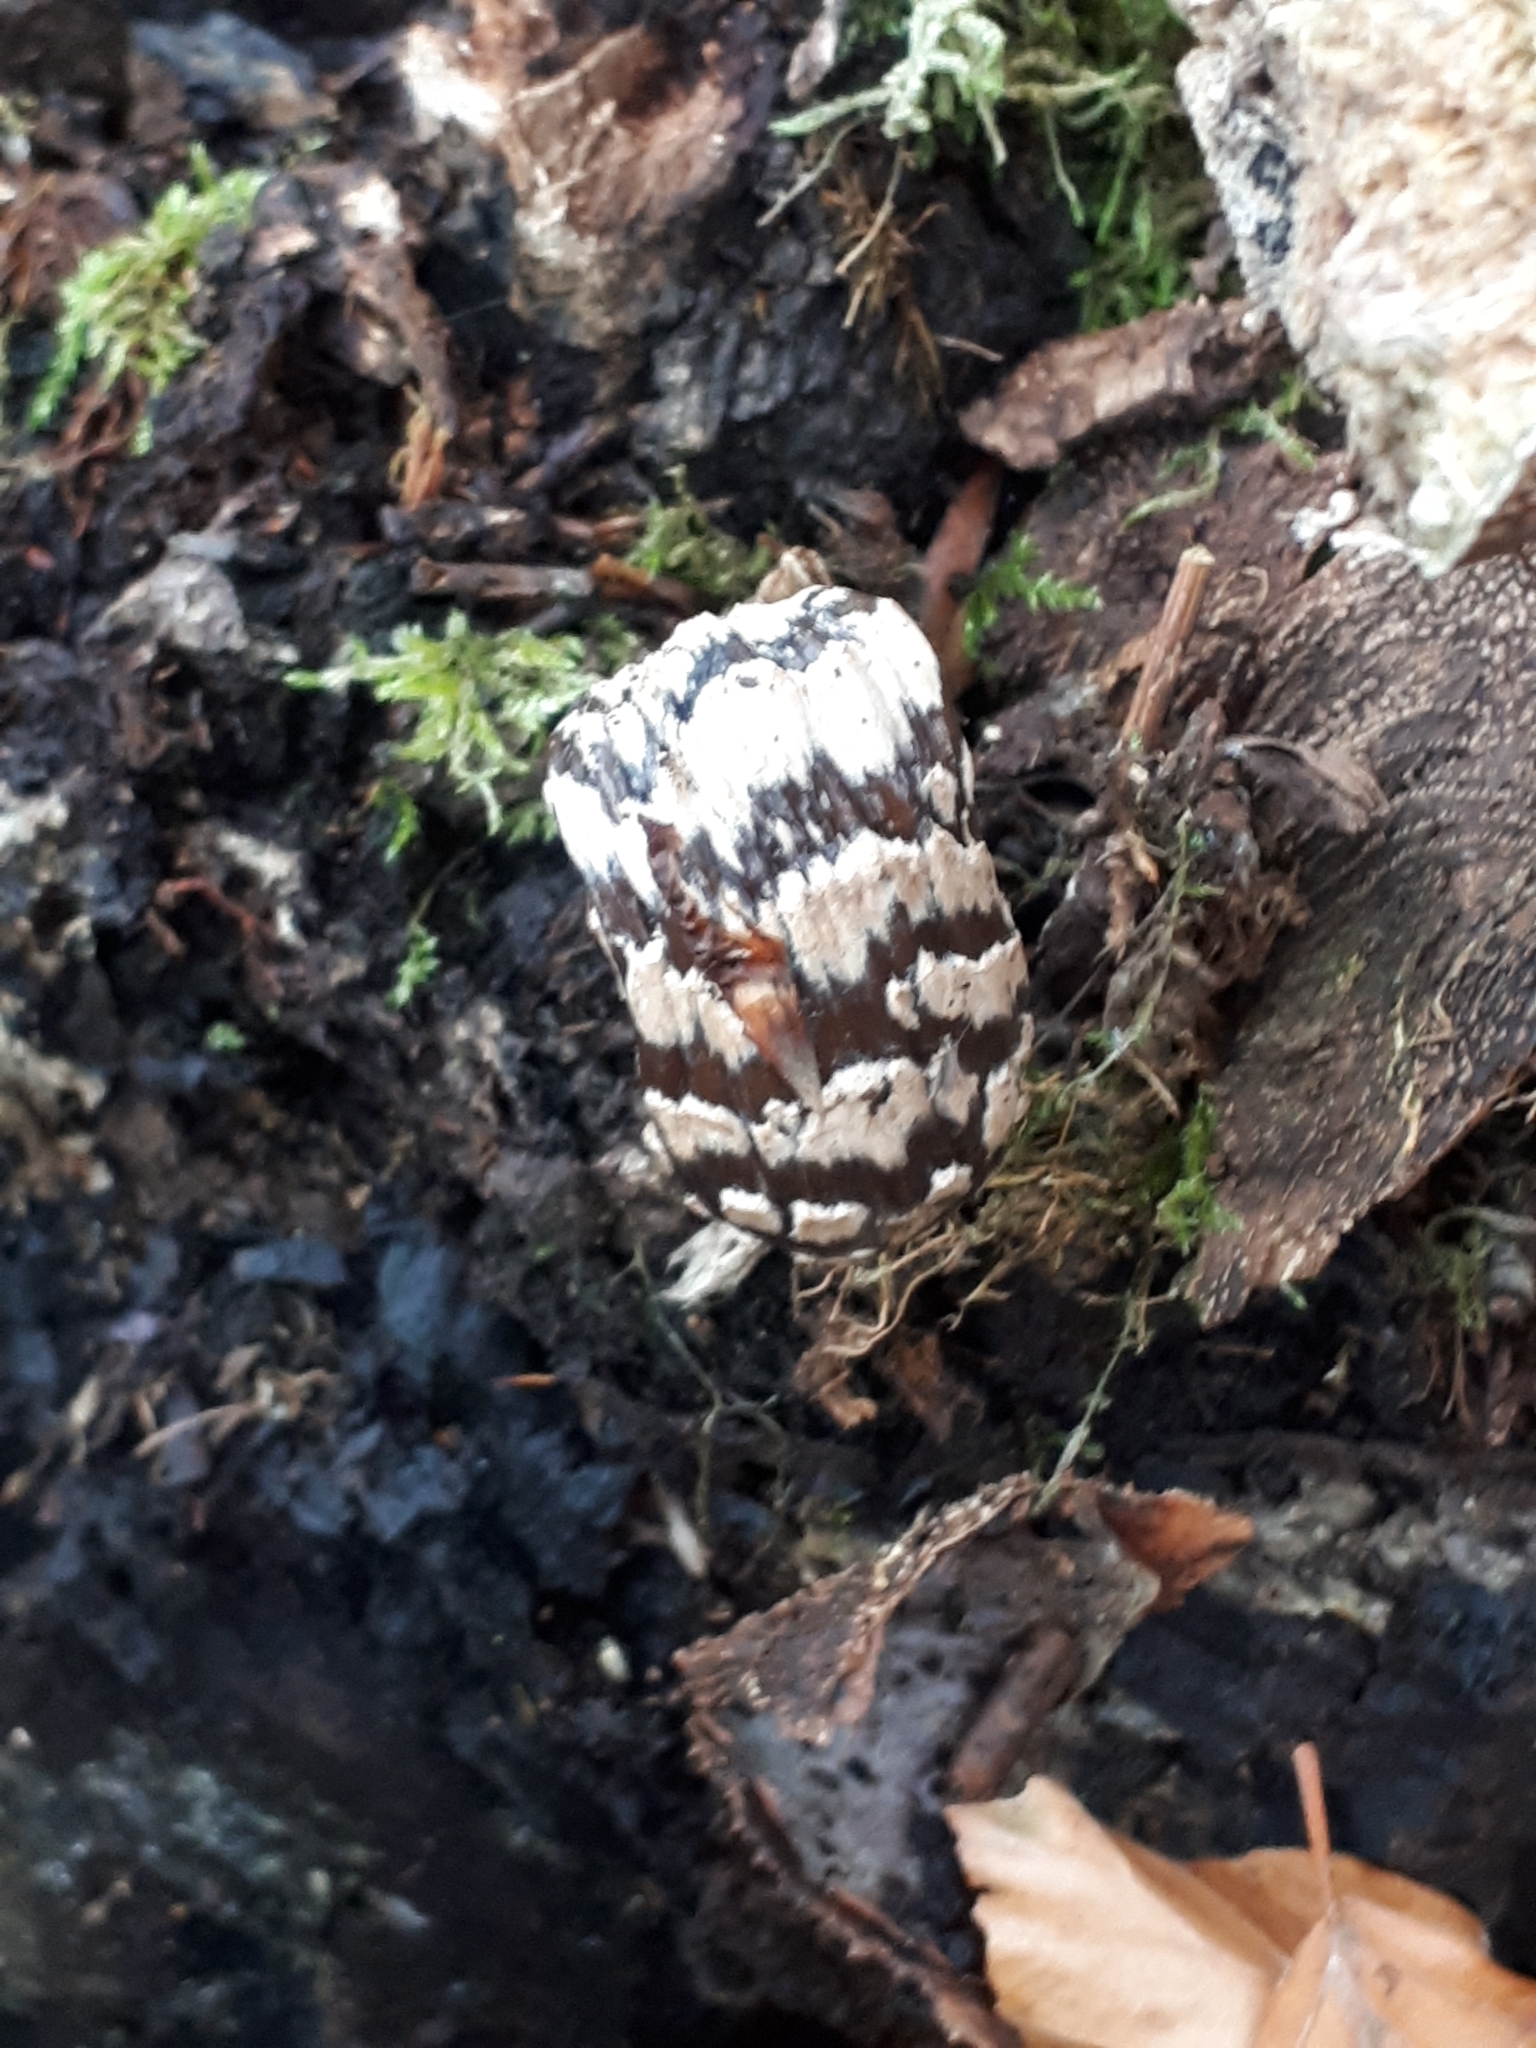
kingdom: Fungi
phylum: Basidiomycota
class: Agaricomycetes
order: Agaricales
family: Psathyrellaceae
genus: Coprinopsis
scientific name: Coprinopsis picacea
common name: Magpie inkcap
